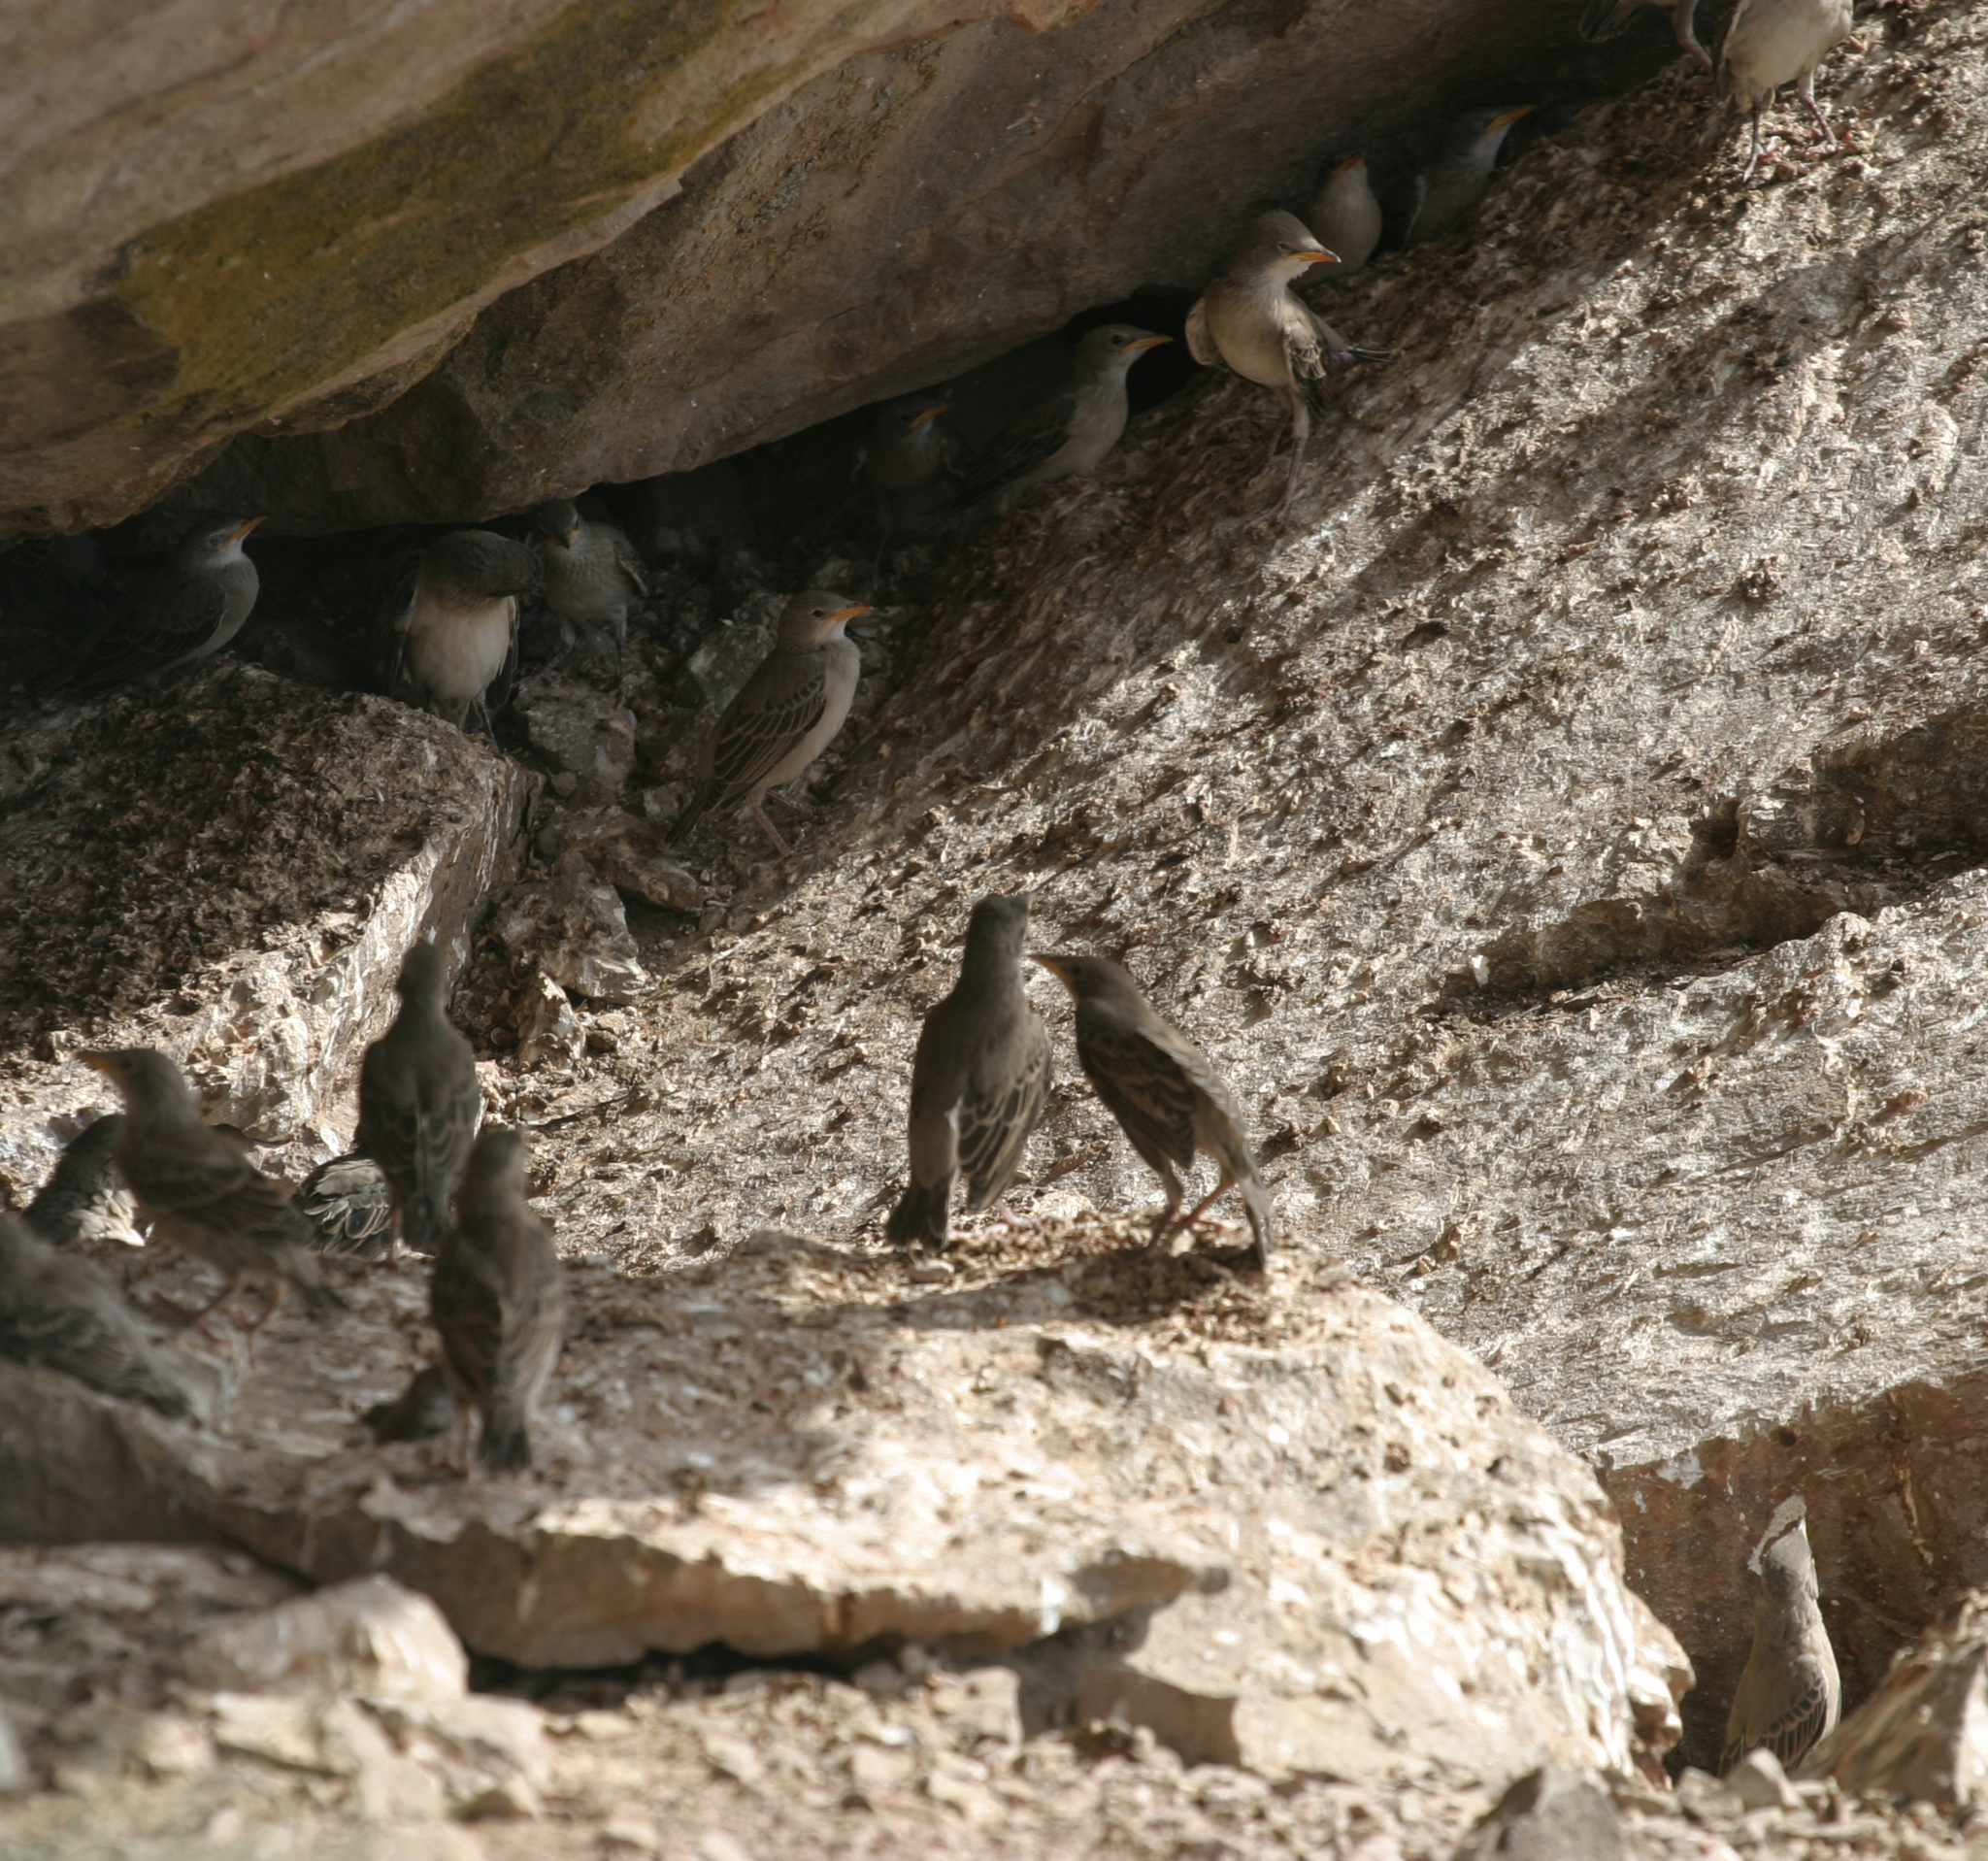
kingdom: Animalia
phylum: Chordata
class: Aves
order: Passeriformes
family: Sturnidae
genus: Pastor
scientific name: Pastor roseus
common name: Rosy starling
